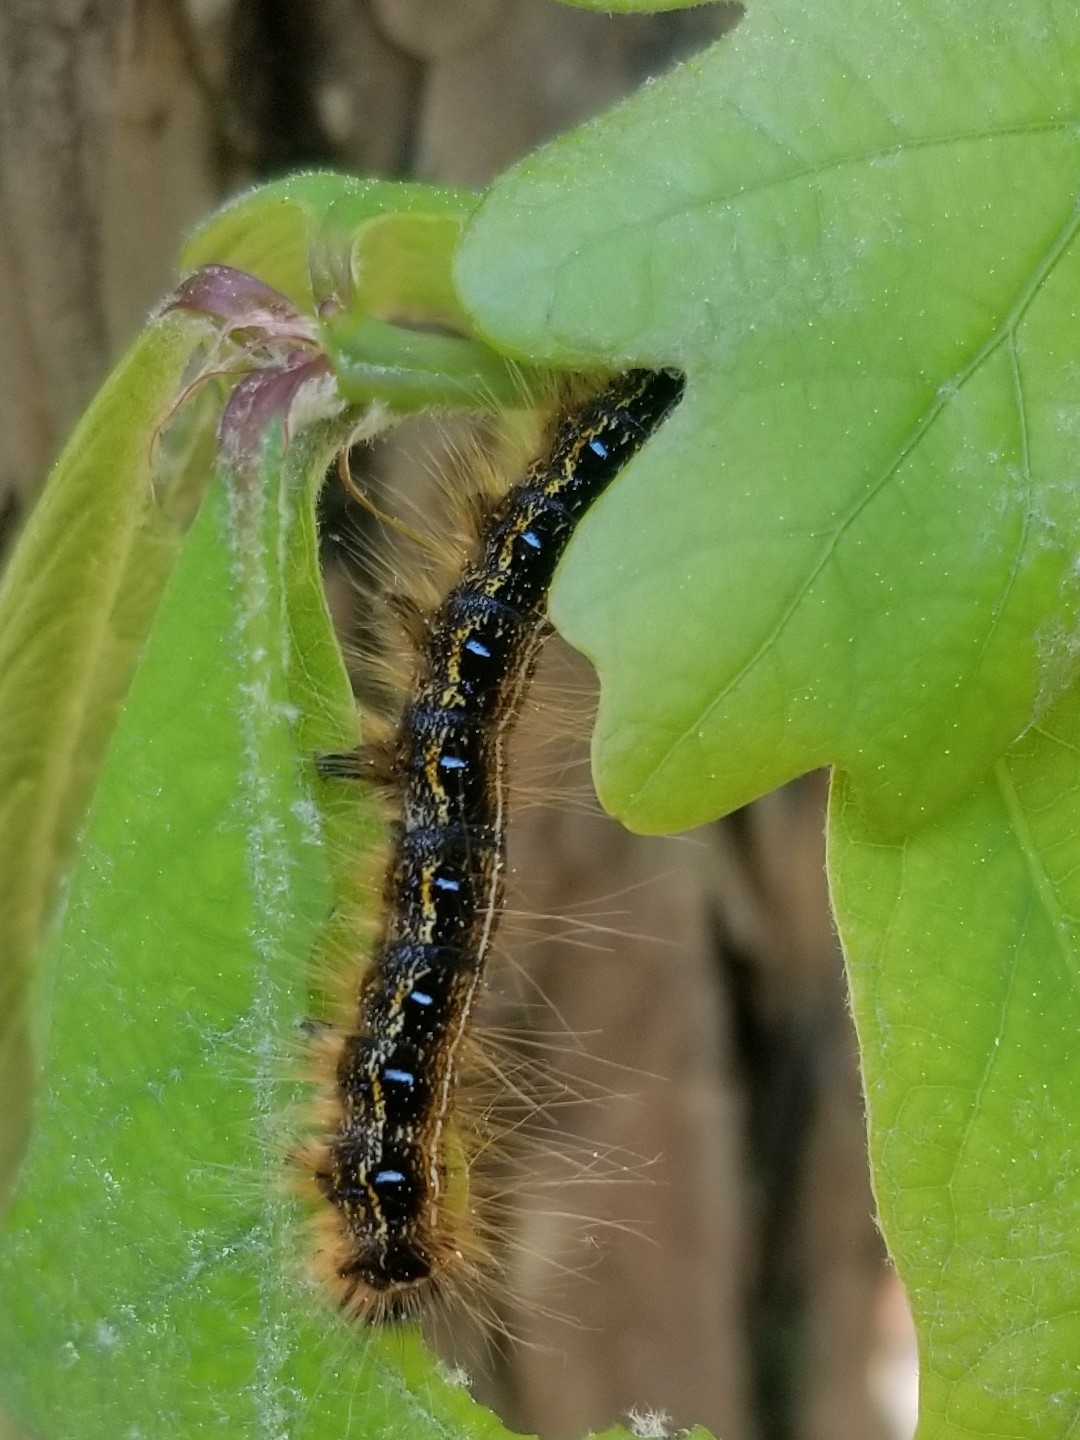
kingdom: Animalia
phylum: Arthropoda
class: Insecta
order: Lepidoptera
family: Lasiocampidae
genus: Malacosoma
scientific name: Malacosoma americana
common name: Eastern tent caterpillar moth
